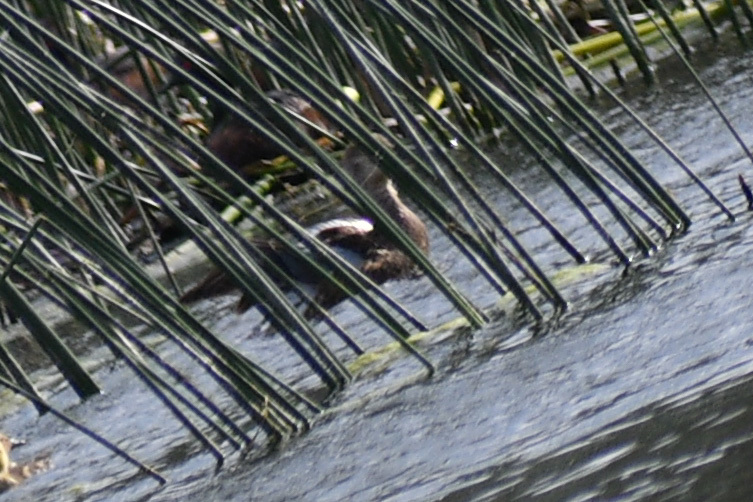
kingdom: Animalia
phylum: Chordata
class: Aves
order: Anseriformes
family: Anatidae
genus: Spatula
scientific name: Spatula discors
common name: Blue-winged teal
